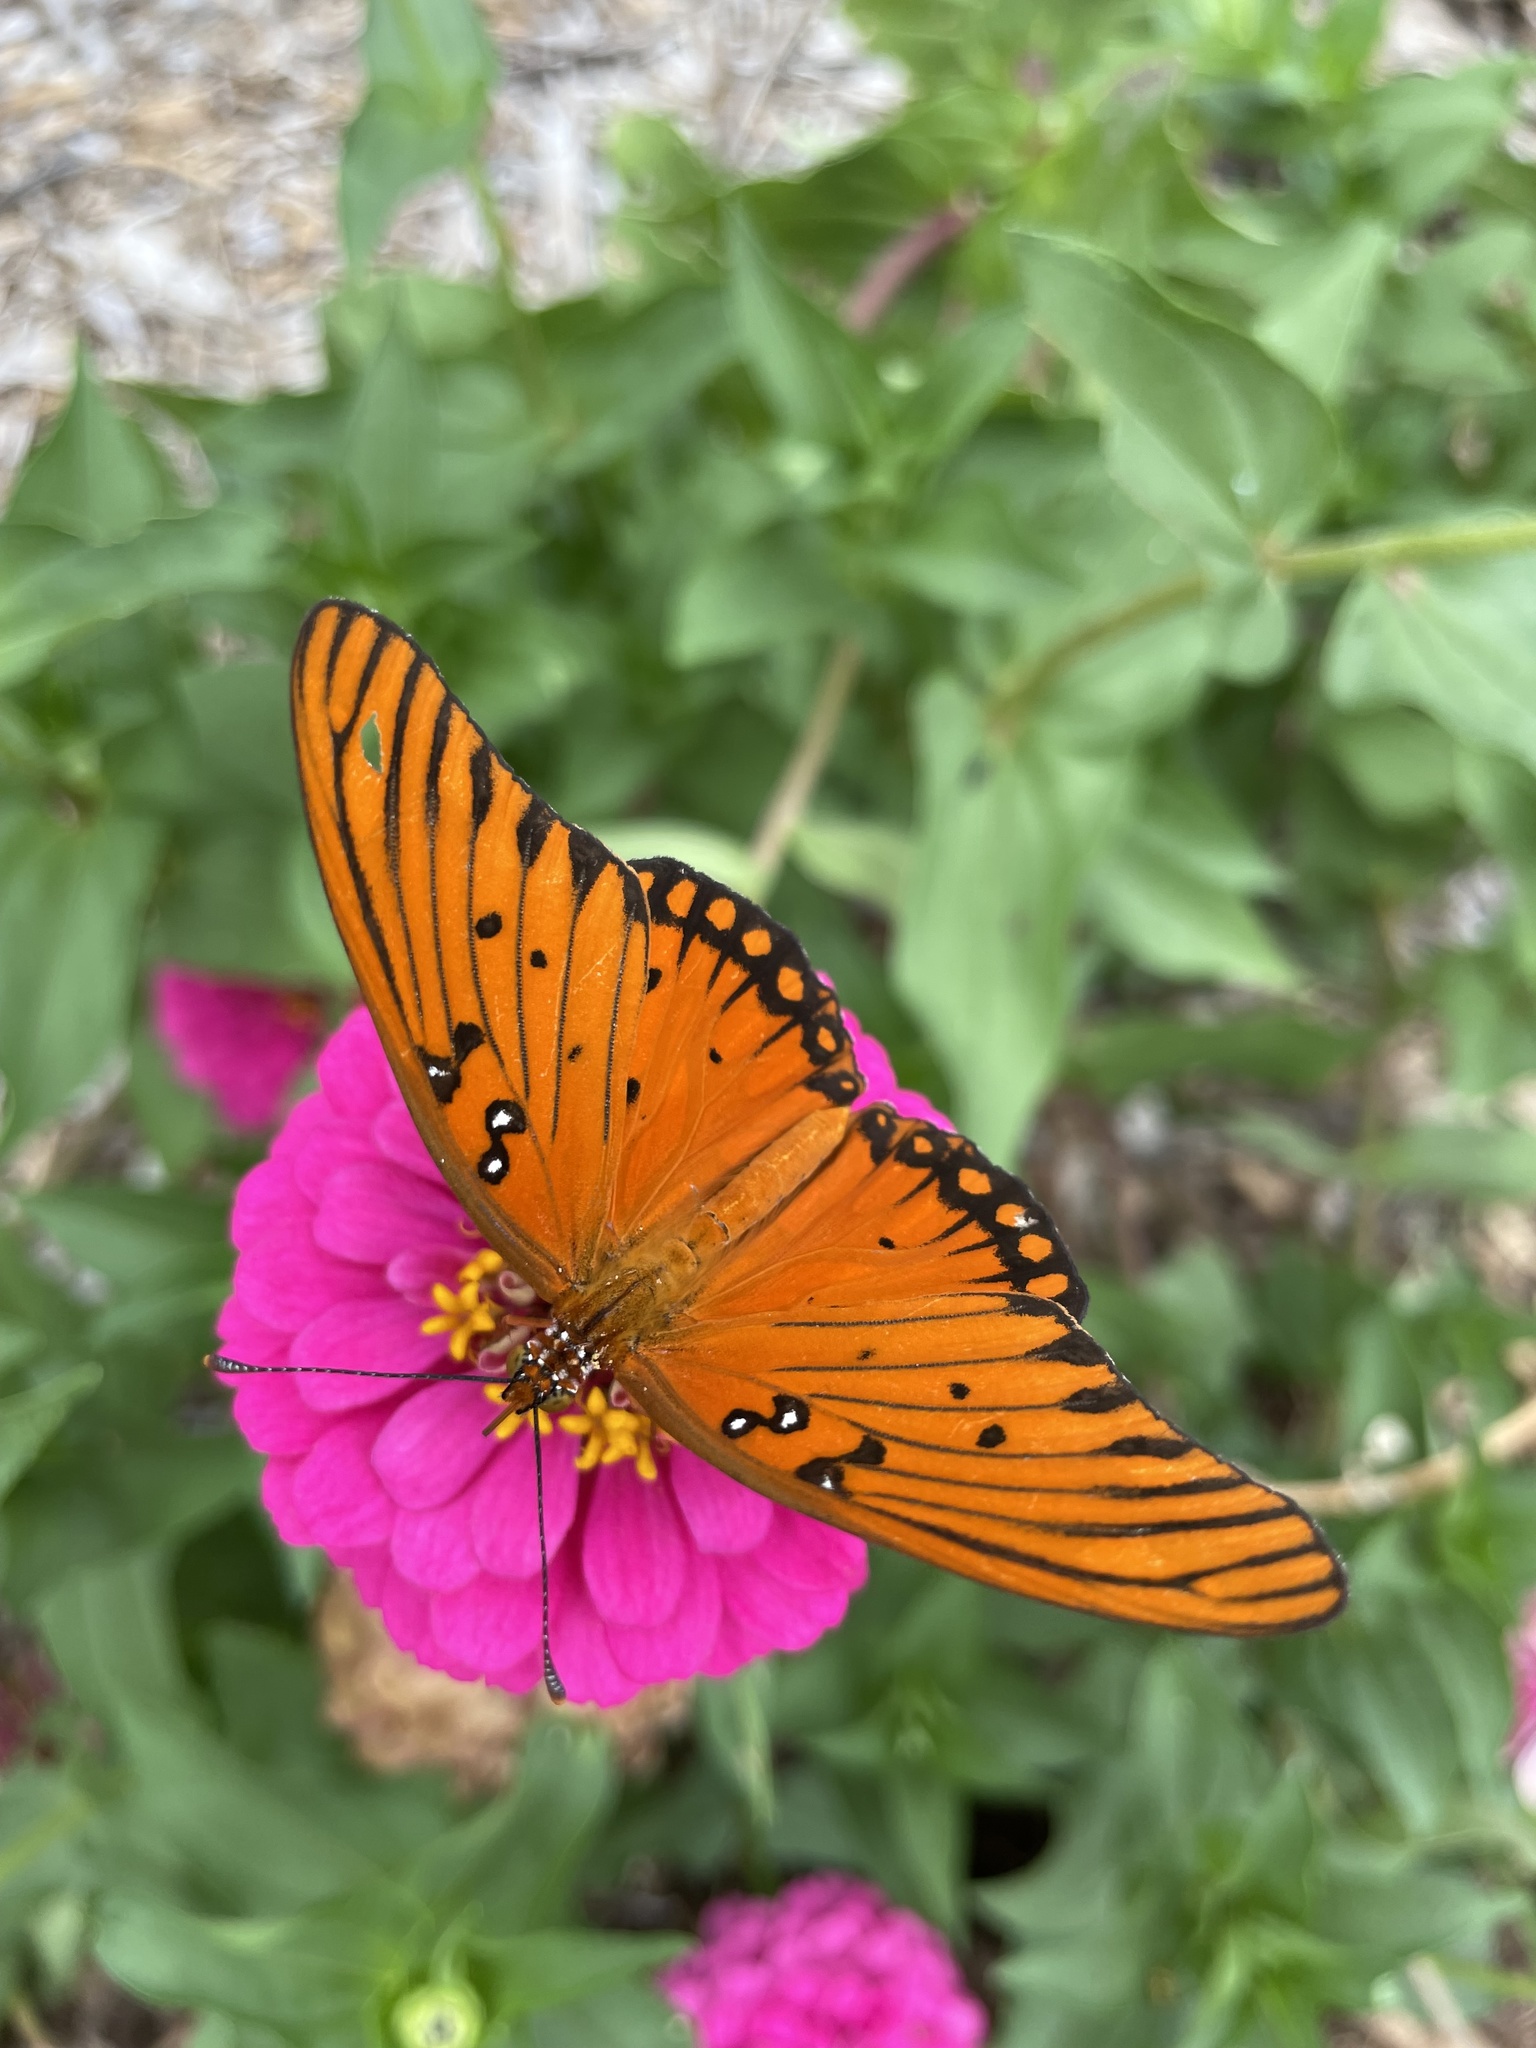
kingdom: Animalia
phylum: Arthropoda
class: Insecta
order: Lepidoptera
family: Nymphalidae
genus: Dione
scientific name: Dione vanillae
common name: Gulf fritillary
